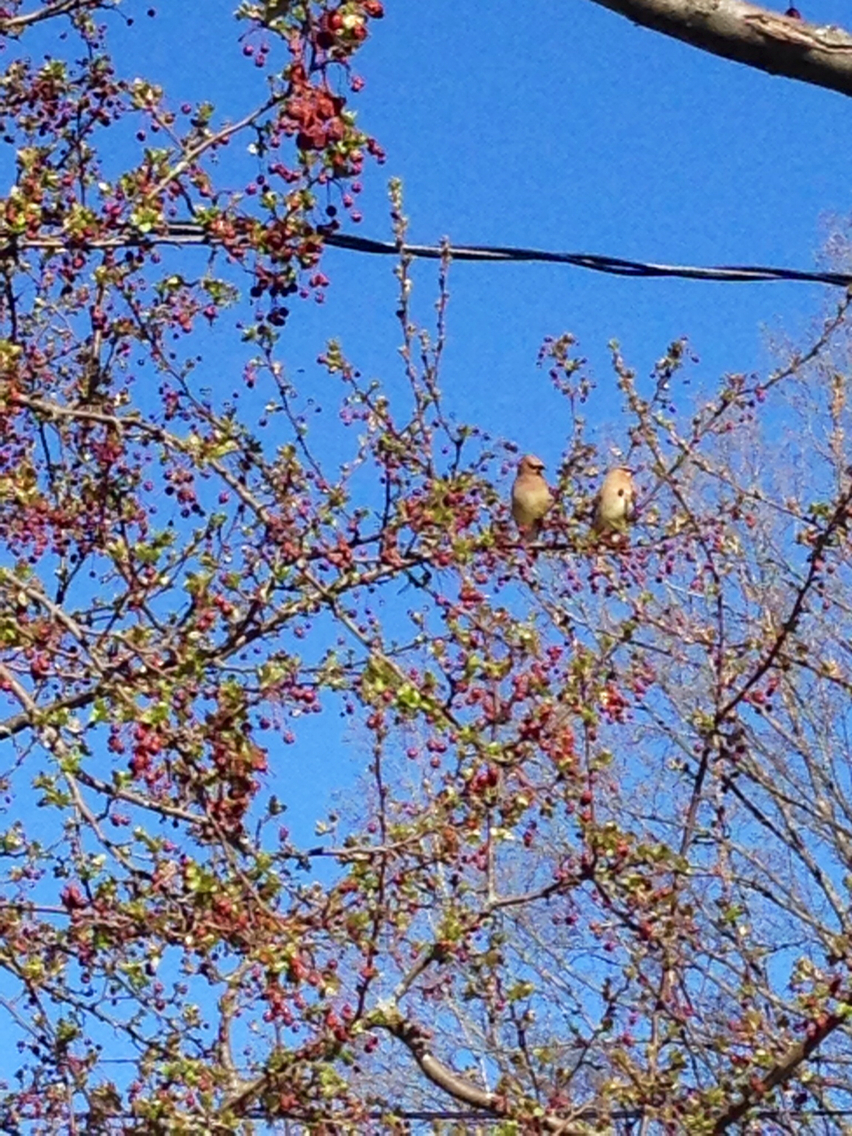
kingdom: Animalia
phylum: Chordata
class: Aves
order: Passeriformes
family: Bombycillidae
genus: Bombycilla
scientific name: Bombycilla cedrorum
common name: Cedar waxwing
